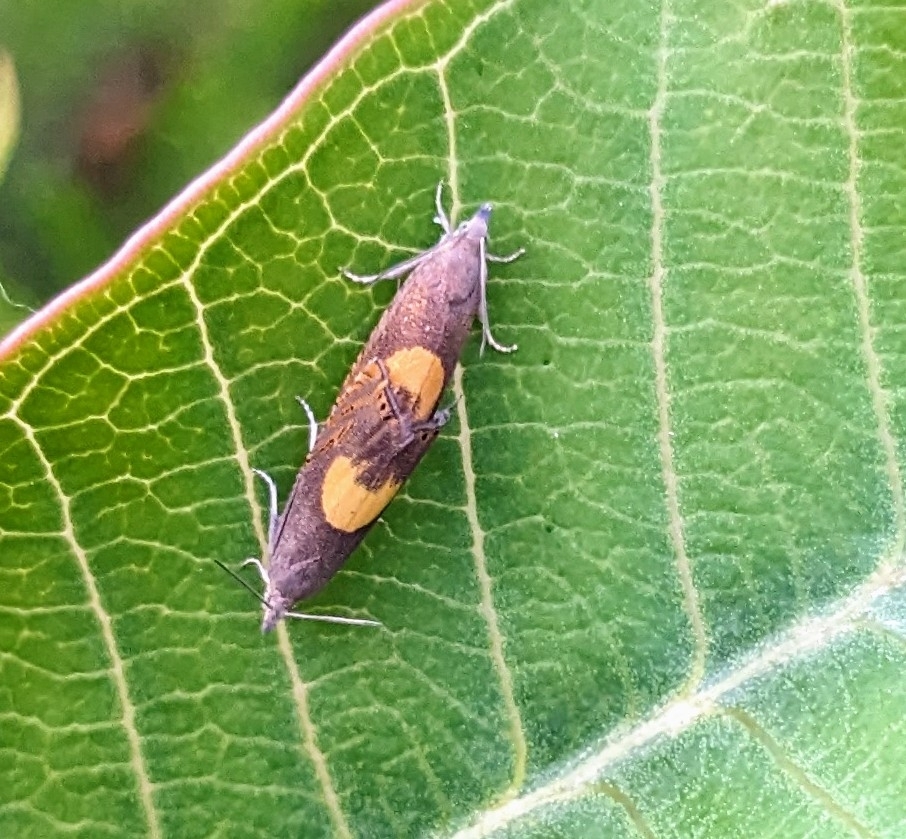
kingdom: Animalia
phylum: Arthropoda
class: Insecta
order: Lepidoptera
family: Tortricidae
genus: Dichrorampha
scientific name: Dichrorampha petiverella
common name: Common drill
